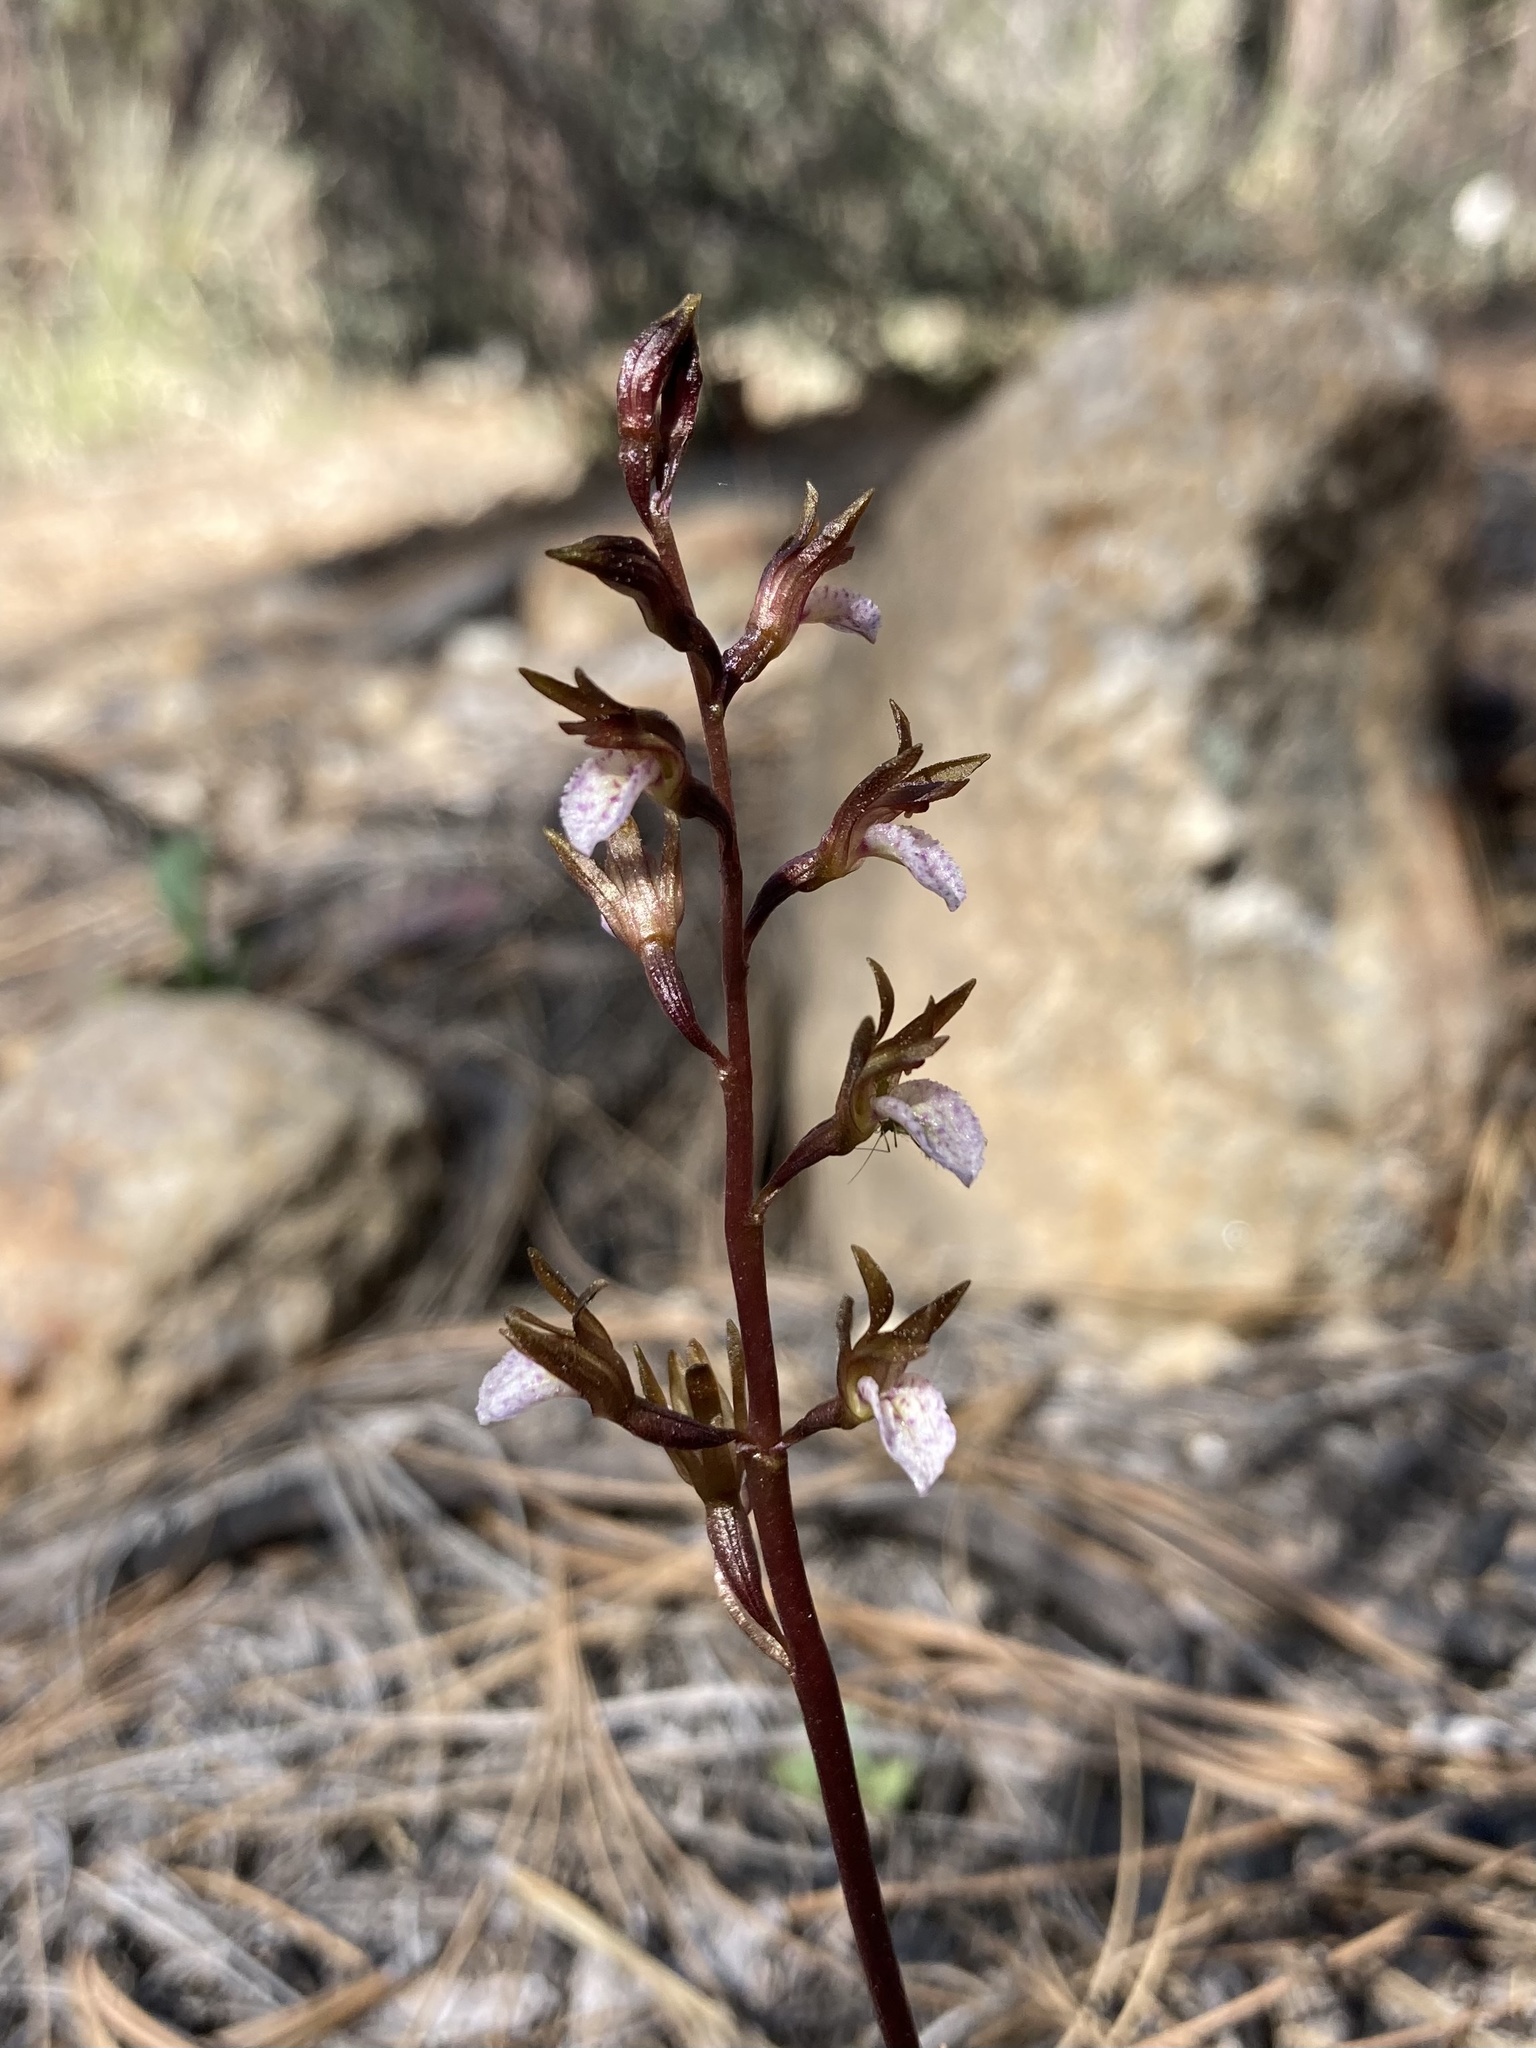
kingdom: Plantae
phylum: Tracheophyta
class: Liliopsida
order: Asparagales
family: Orchidaceae
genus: Corallorhiza
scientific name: Corallorhiza wisteriana
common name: Spring coralroot
